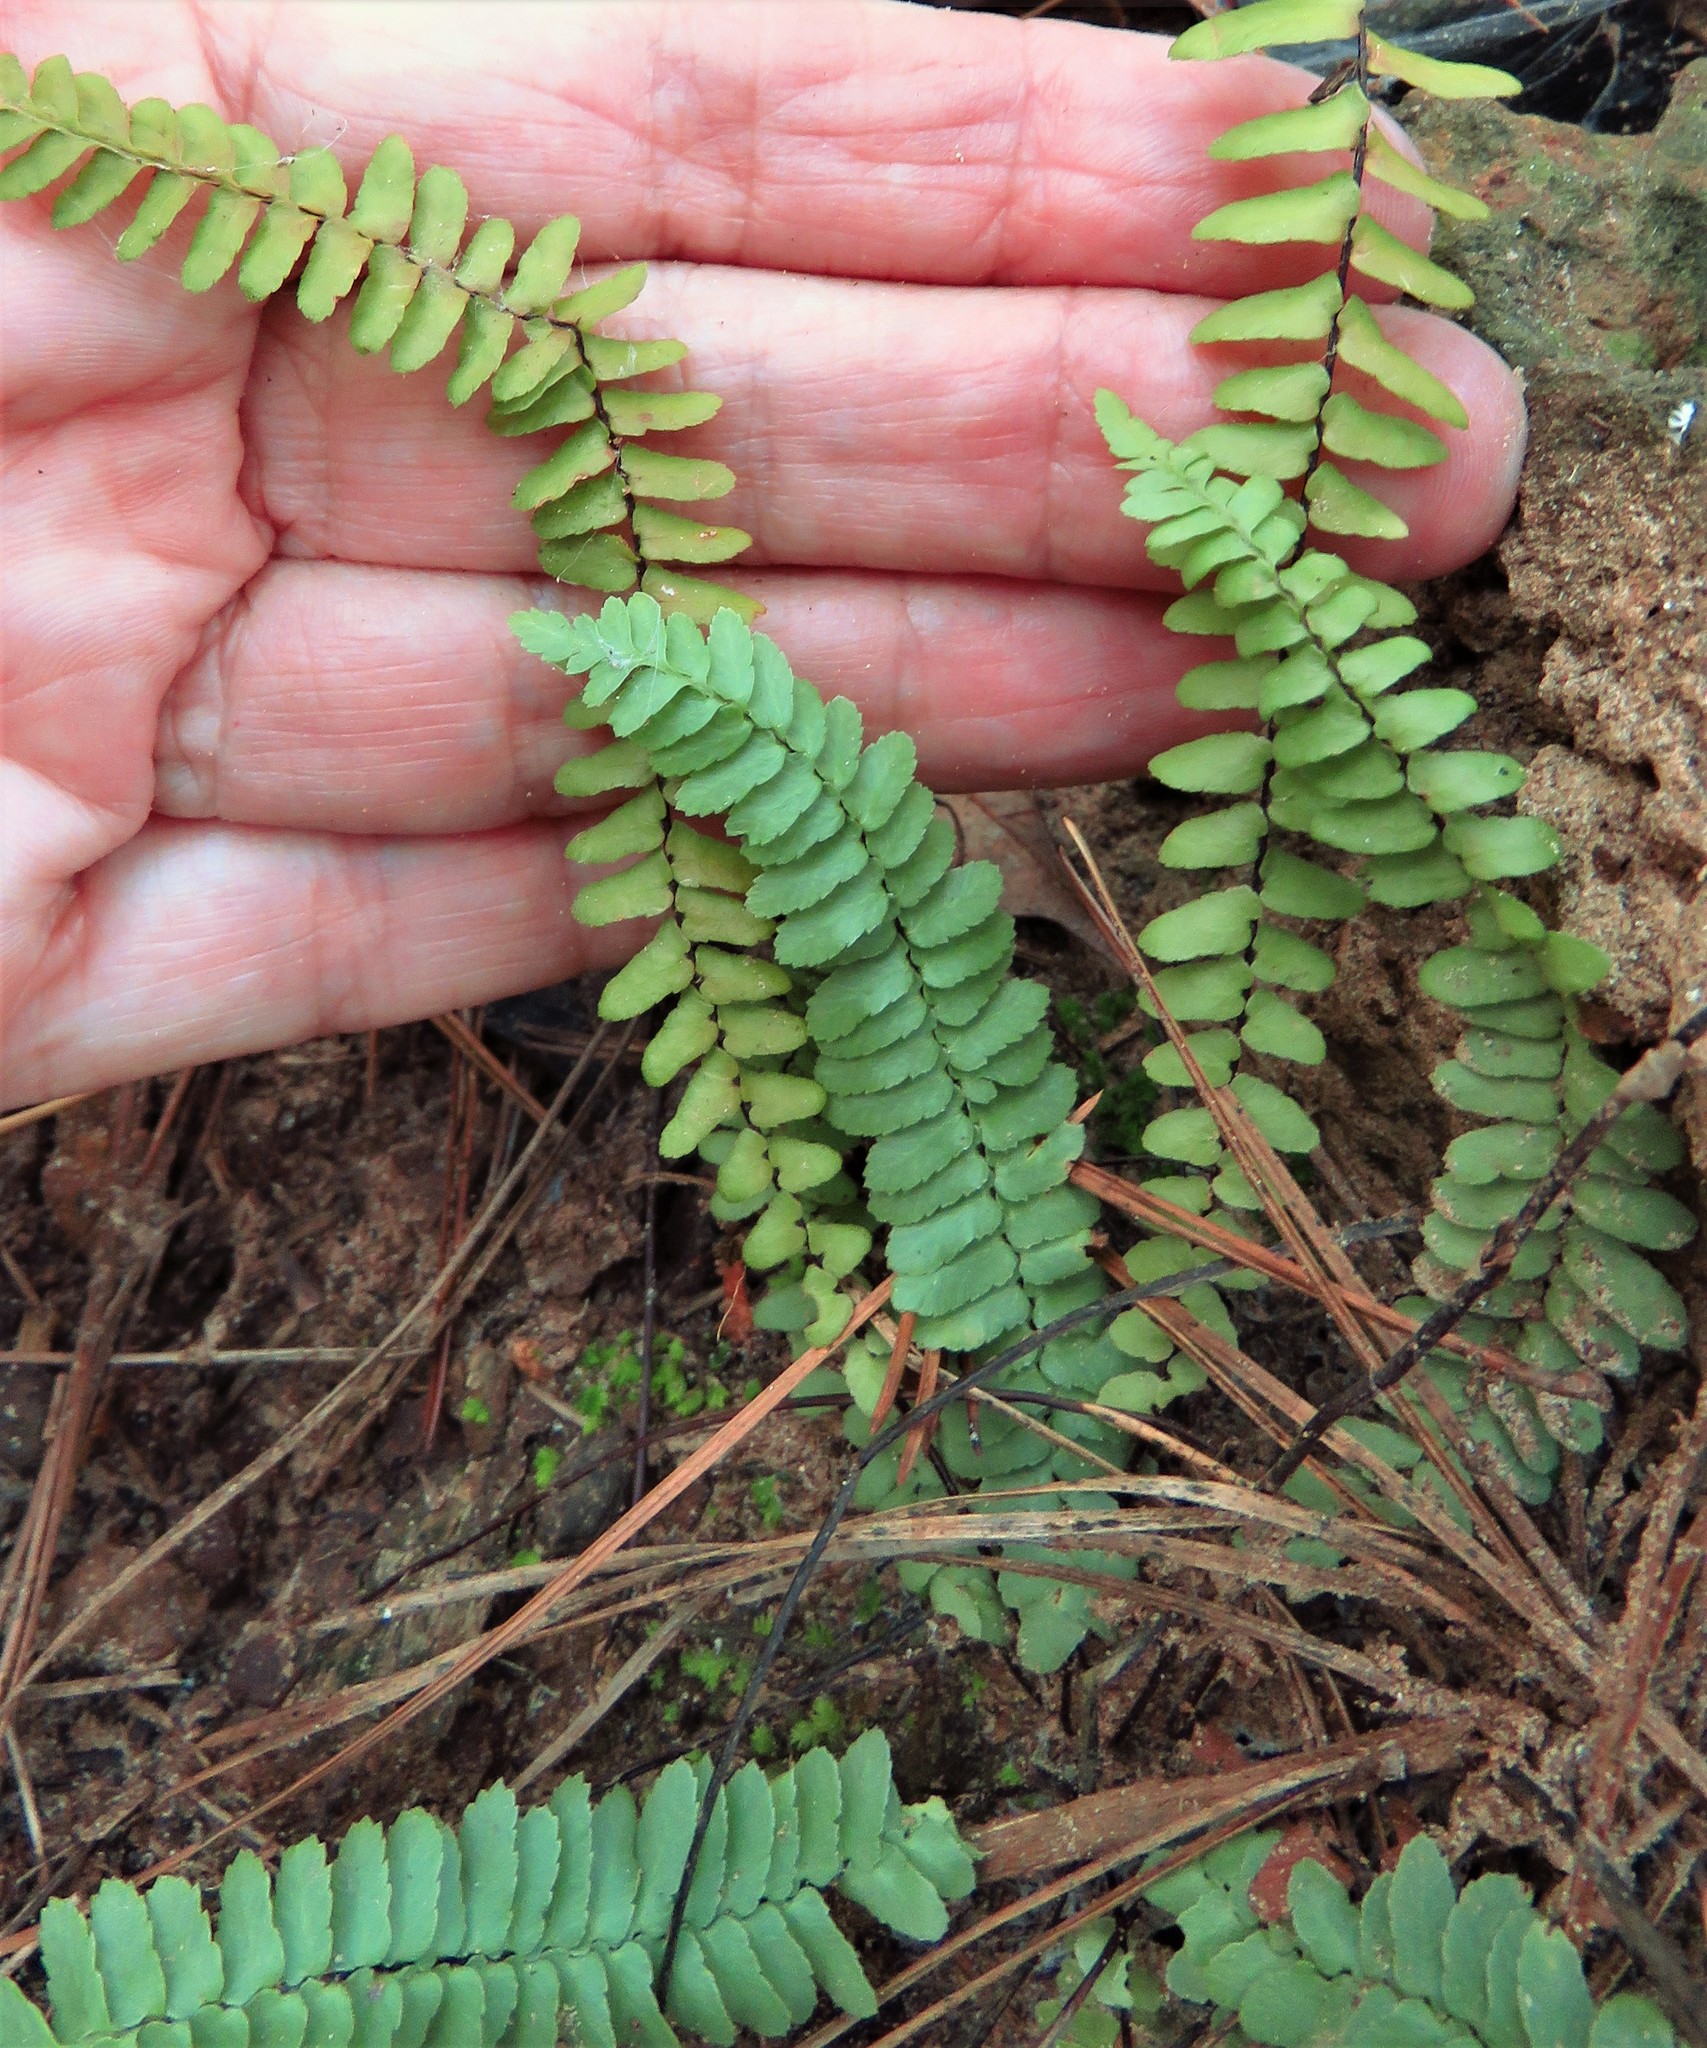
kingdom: Plantae
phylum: Tracheophyta
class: Polypodiopsida
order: Polypodiales
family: Aspleniaceae
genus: Asplenium
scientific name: Asplenium platyneuron
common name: Ebony spleenwort
